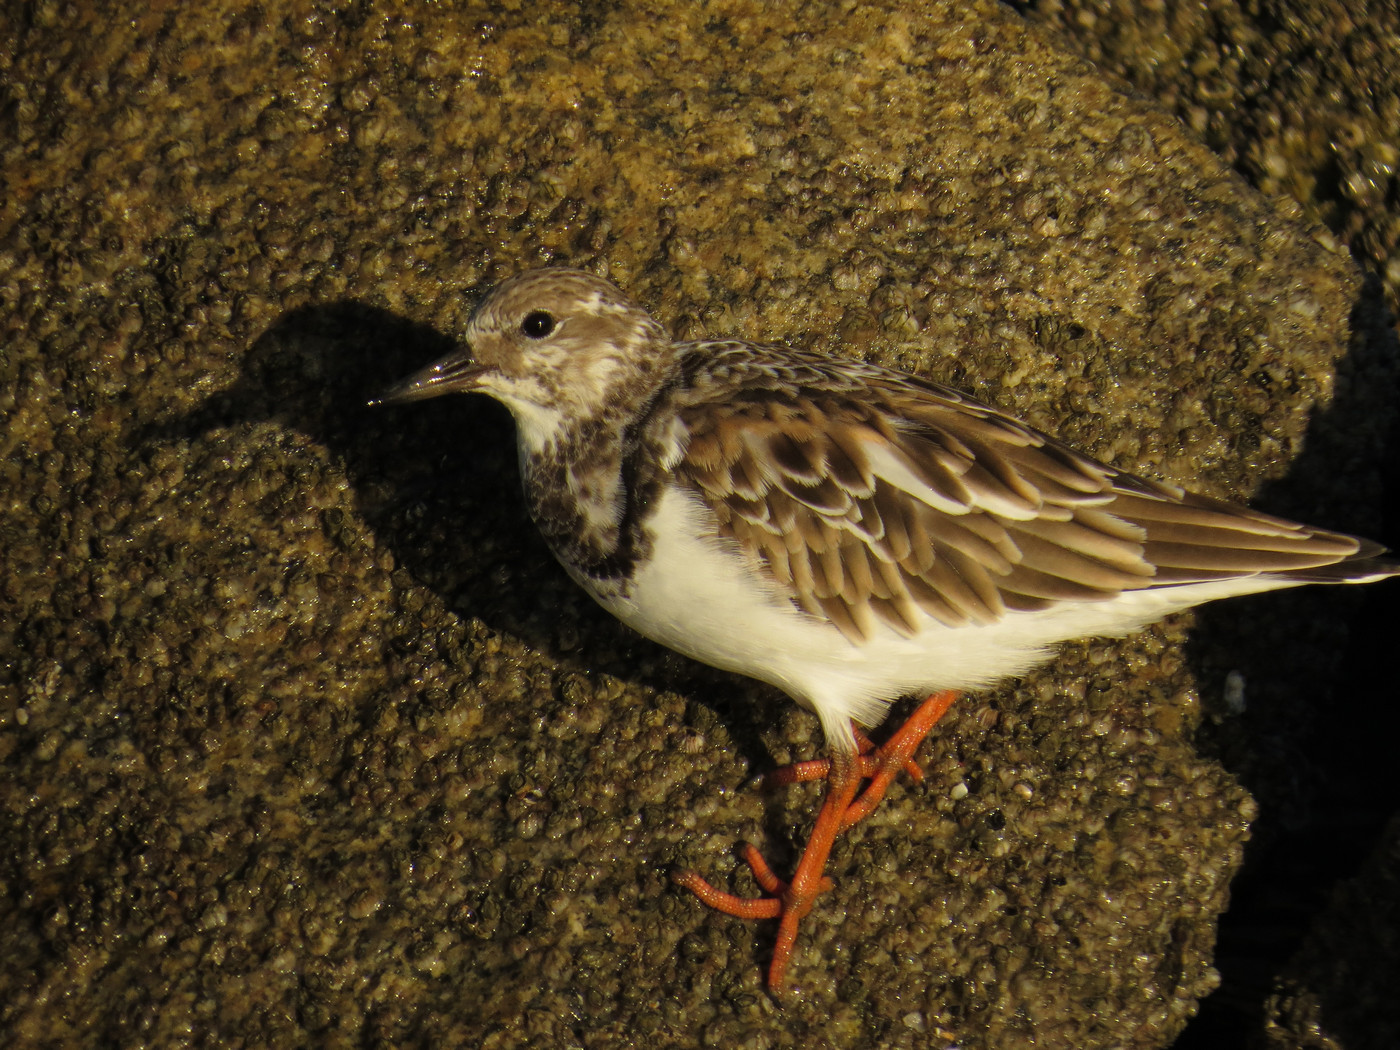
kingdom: Animalia
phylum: Chordata
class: Aves
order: Charadriiformes
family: Scolopacidae
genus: Arenaria
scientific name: Arenaria interpres
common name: Ruddy turnstone
